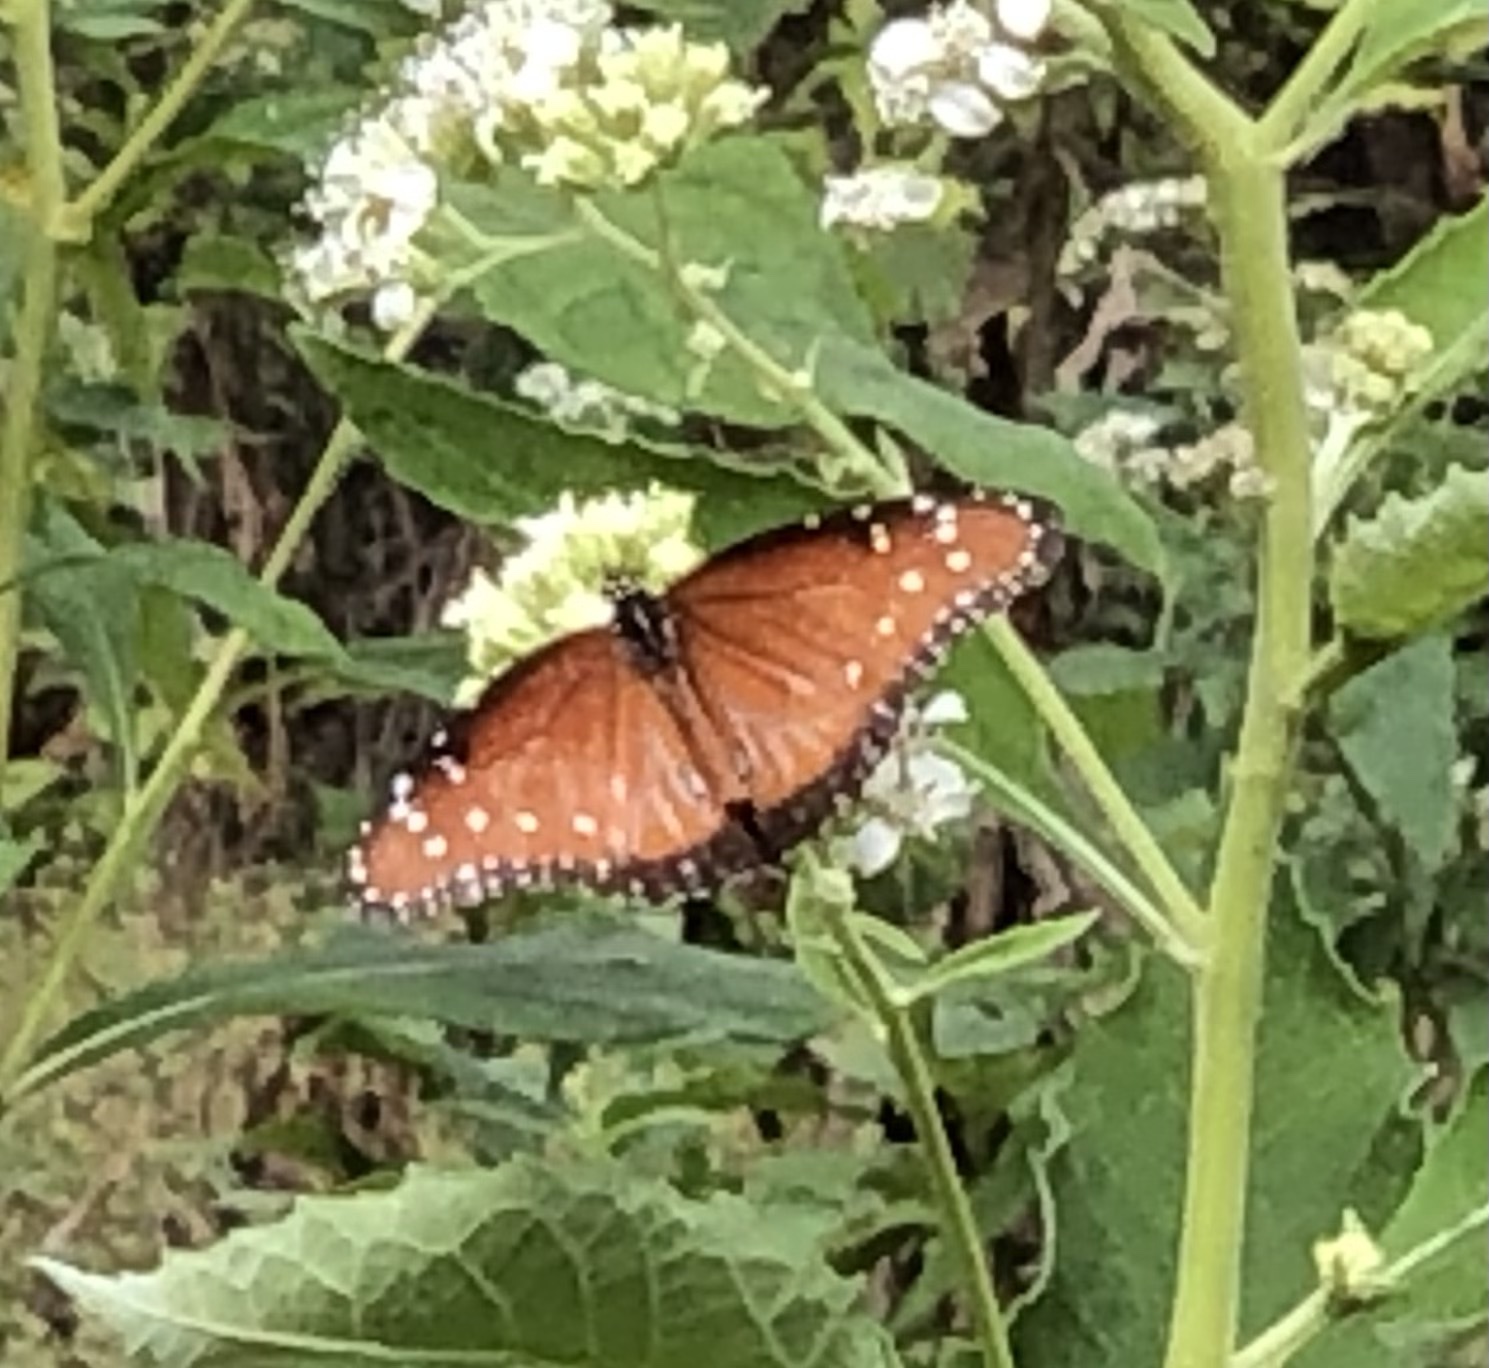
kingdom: Animalia
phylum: Arthropoda
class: Insecta
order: Lepidoptera
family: Nymphalidae
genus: Danaus
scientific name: Danaus gilippus
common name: Queen
